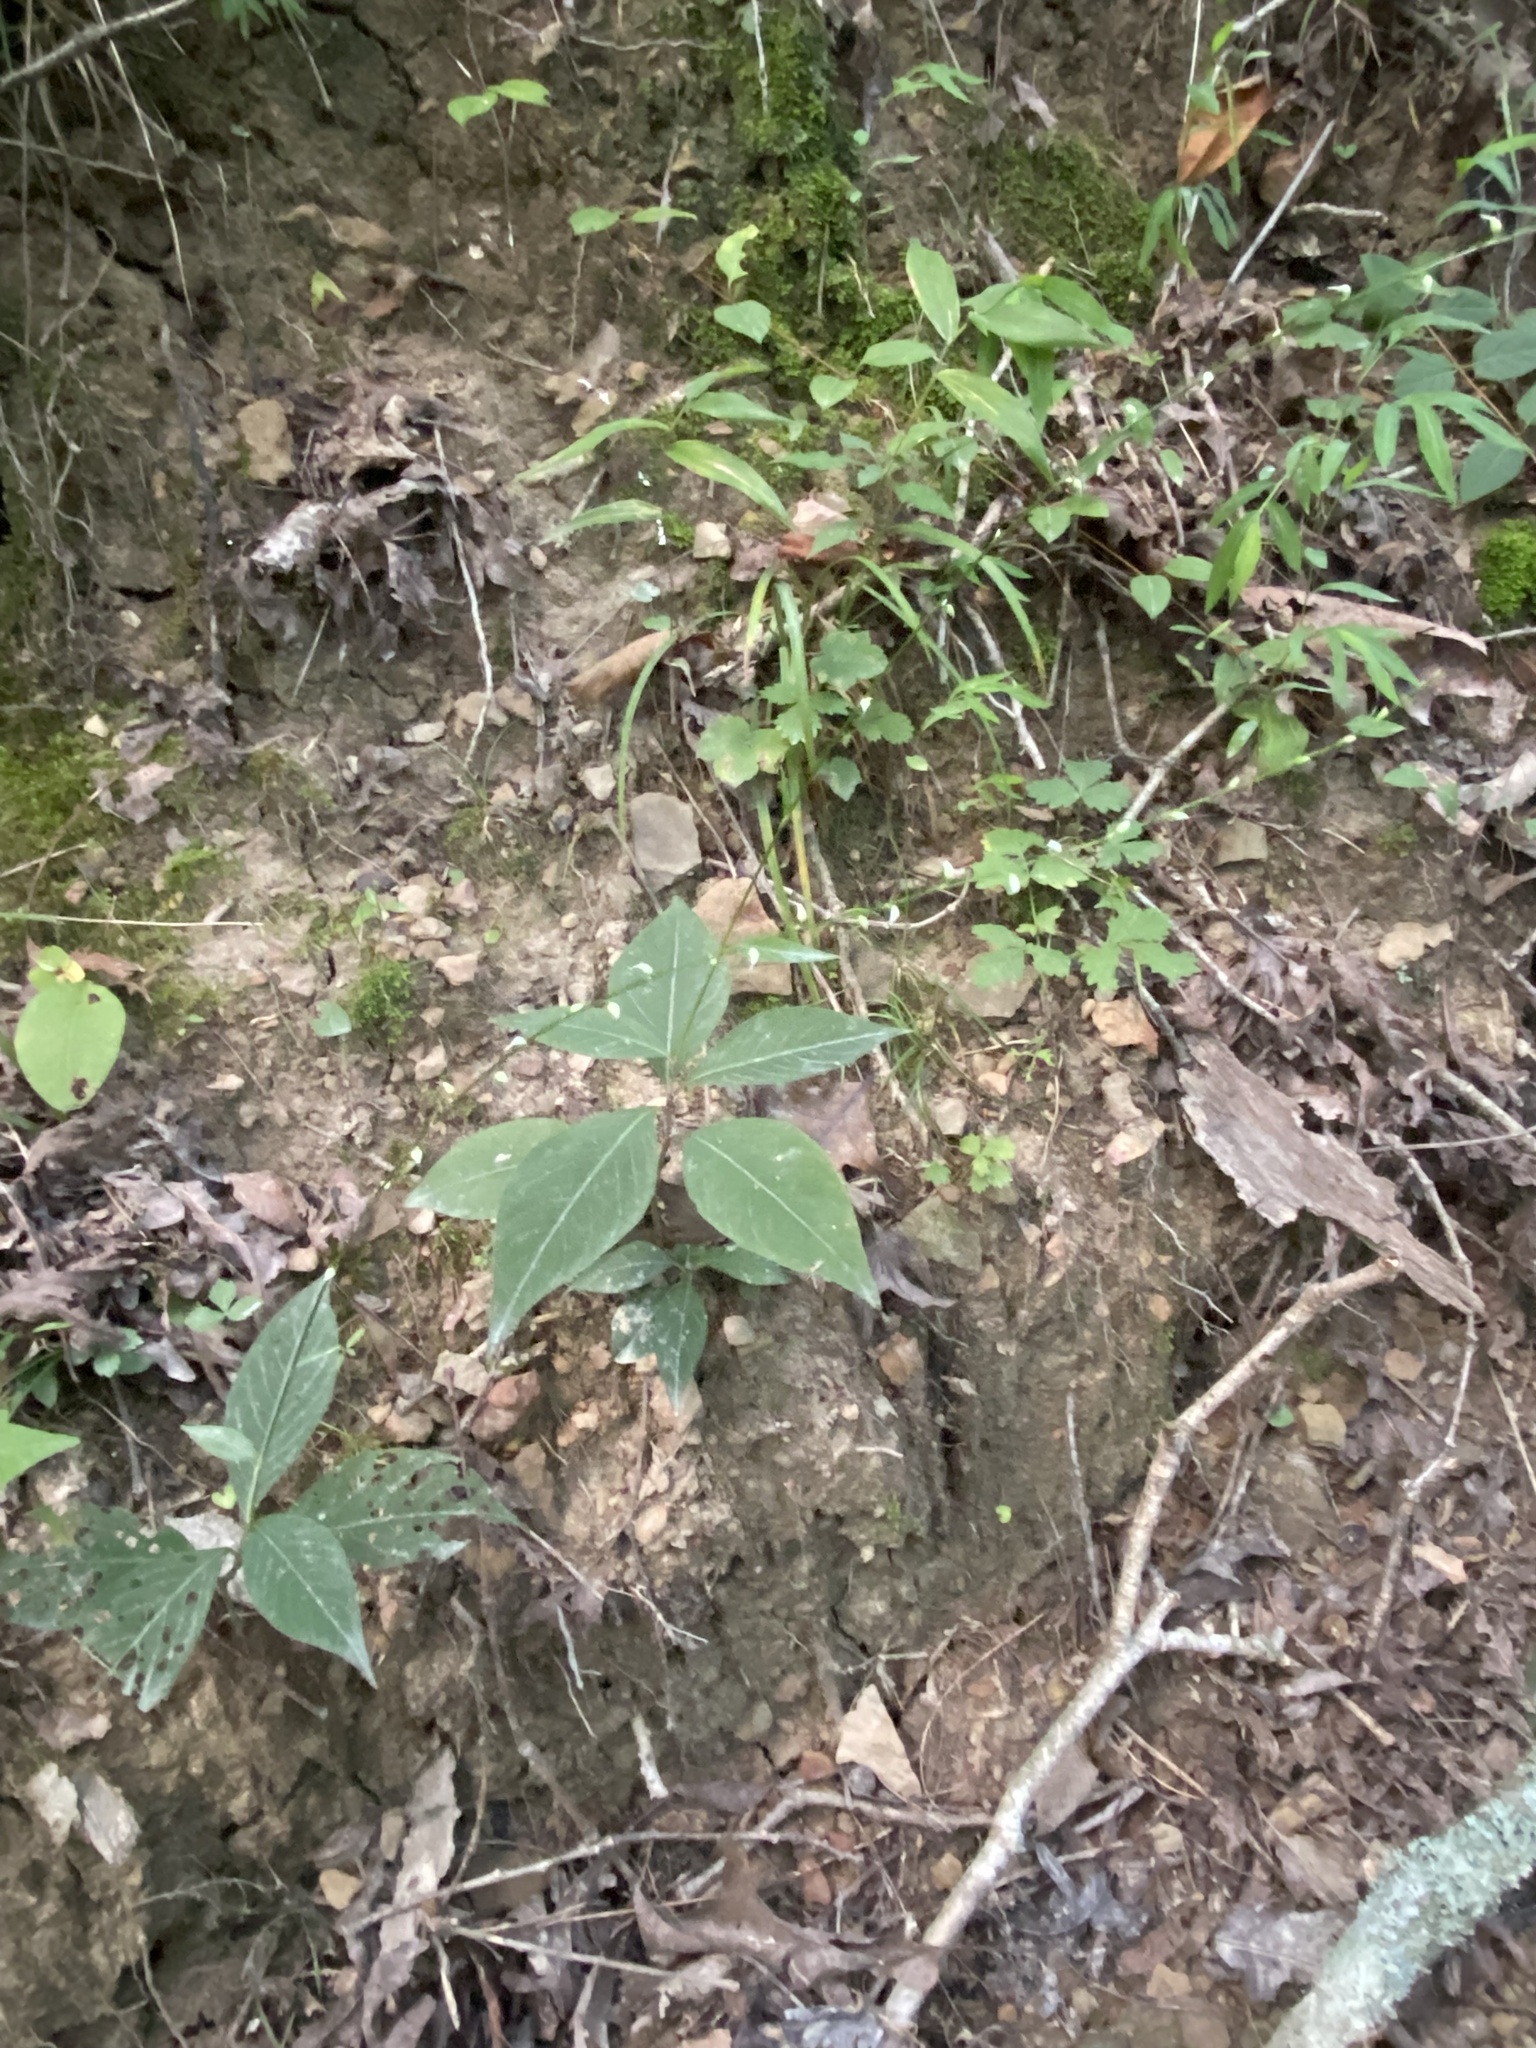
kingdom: Plantae
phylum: Tracheophyta
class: Magnoliopsida
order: Caryophyllales
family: Polygonaceae
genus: Persicaria
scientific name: Persicaria virginiana
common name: Jumpseed
